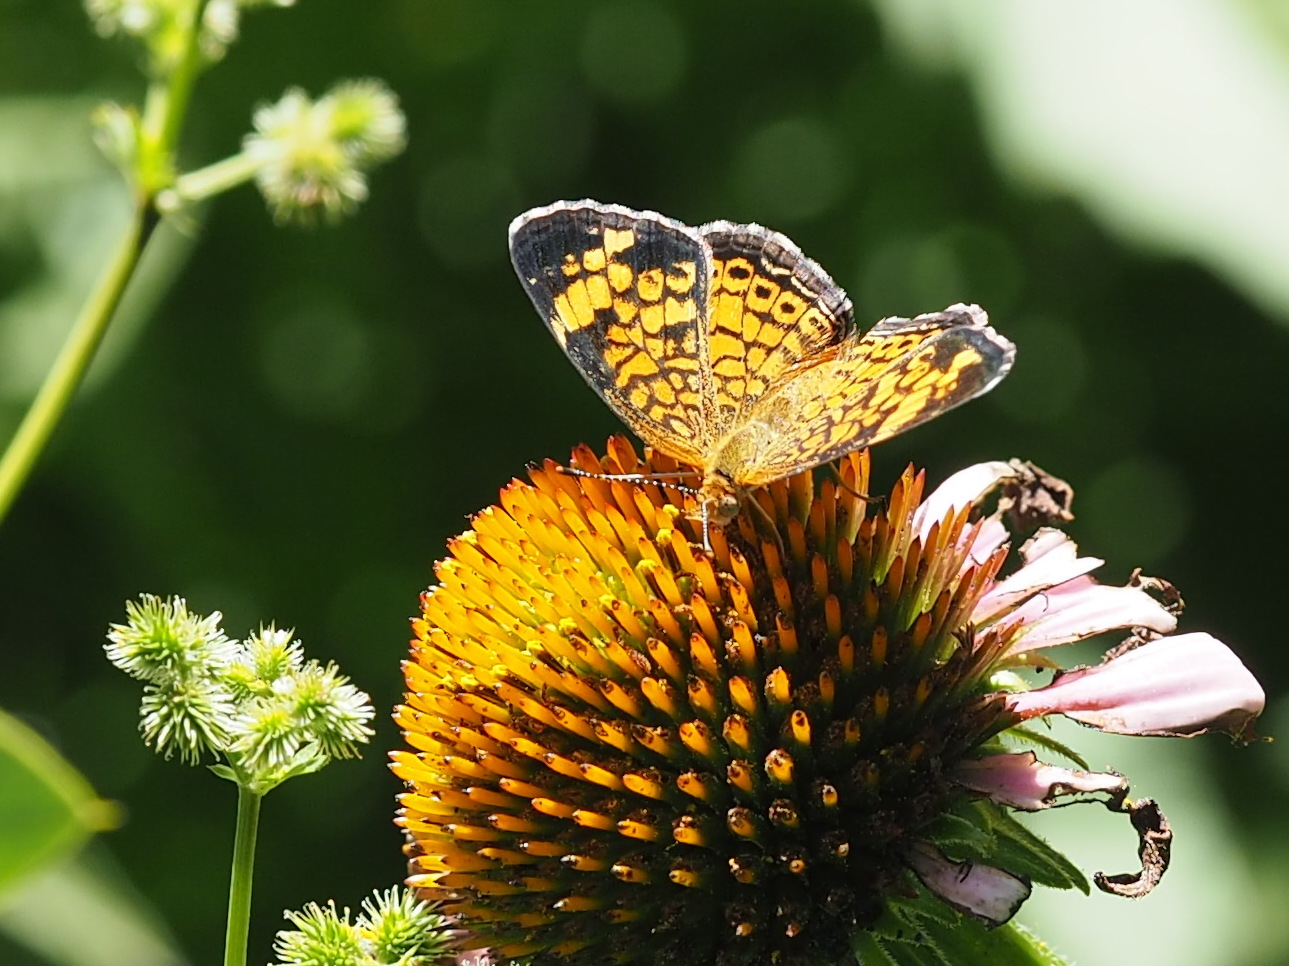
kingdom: Animalia
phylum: Arthropoda
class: Insecta
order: Lepidoptera
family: Nymphalidae
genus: Phyciodes
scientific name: Phyciodes tharos
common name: Pearl crescent
